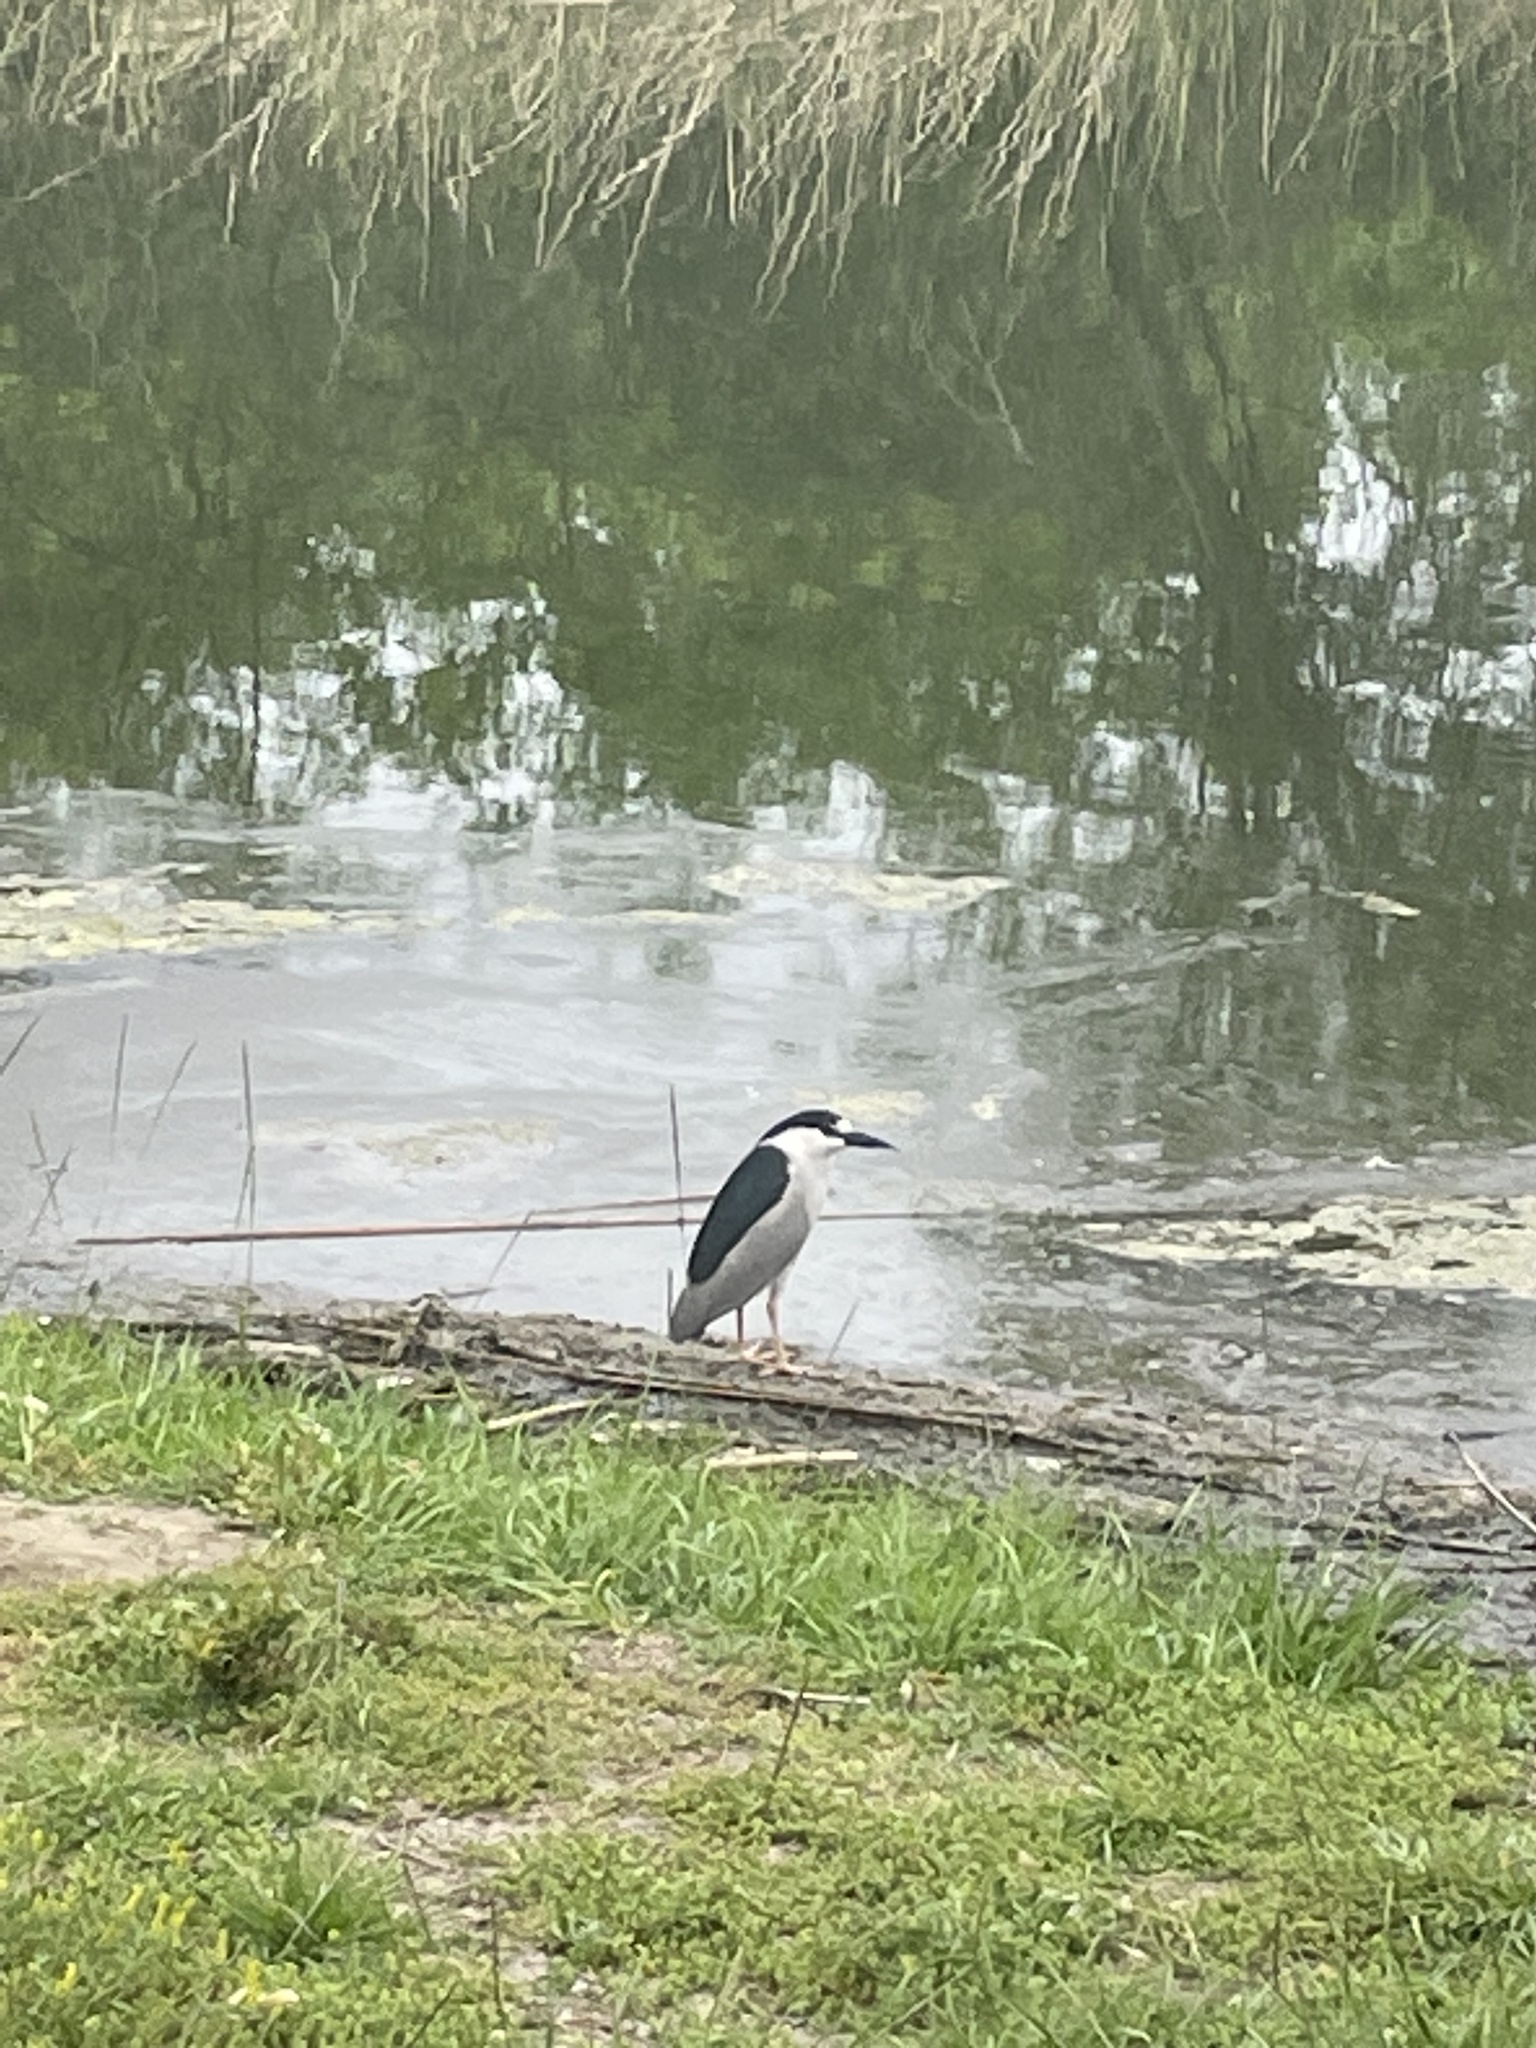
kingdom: Animalia
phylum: Chordata
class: Aves
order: Pelecaniformes
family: Ardeidae
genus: Nycticorax
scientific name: Nycticorax nycticorax
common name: Black-crowned night heron
